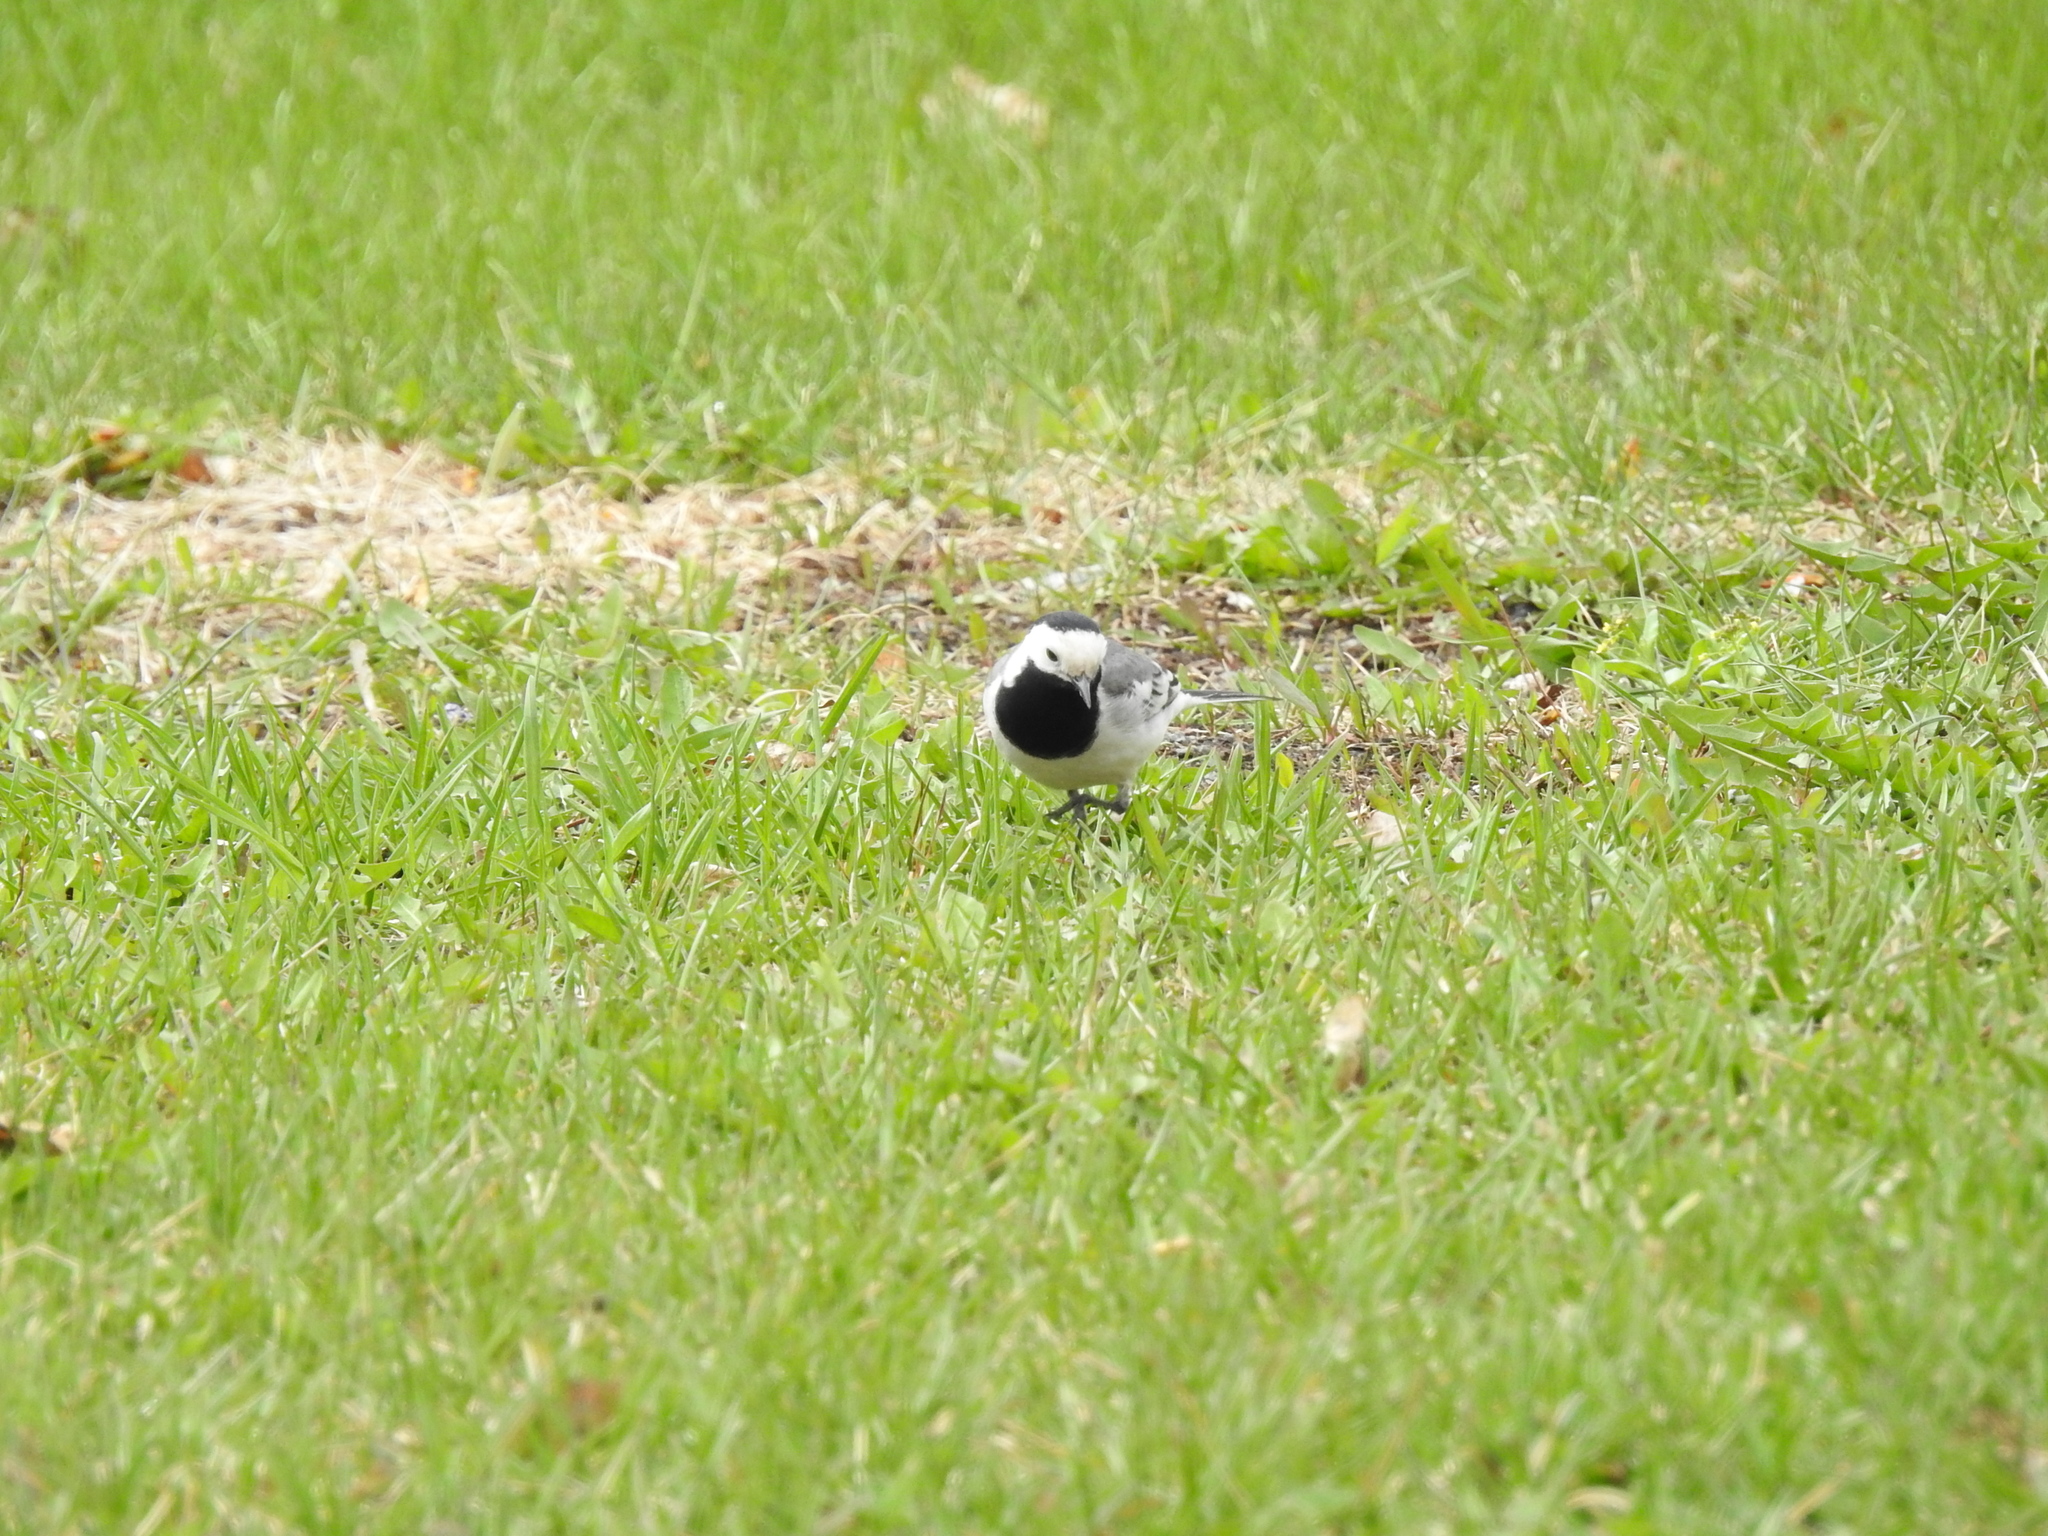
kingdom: Animalia
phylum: Chordata
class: Aves
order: Passeriformes
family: Motacillidae
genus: Motacilla
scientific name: Motacilla alba
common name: White wagtail
